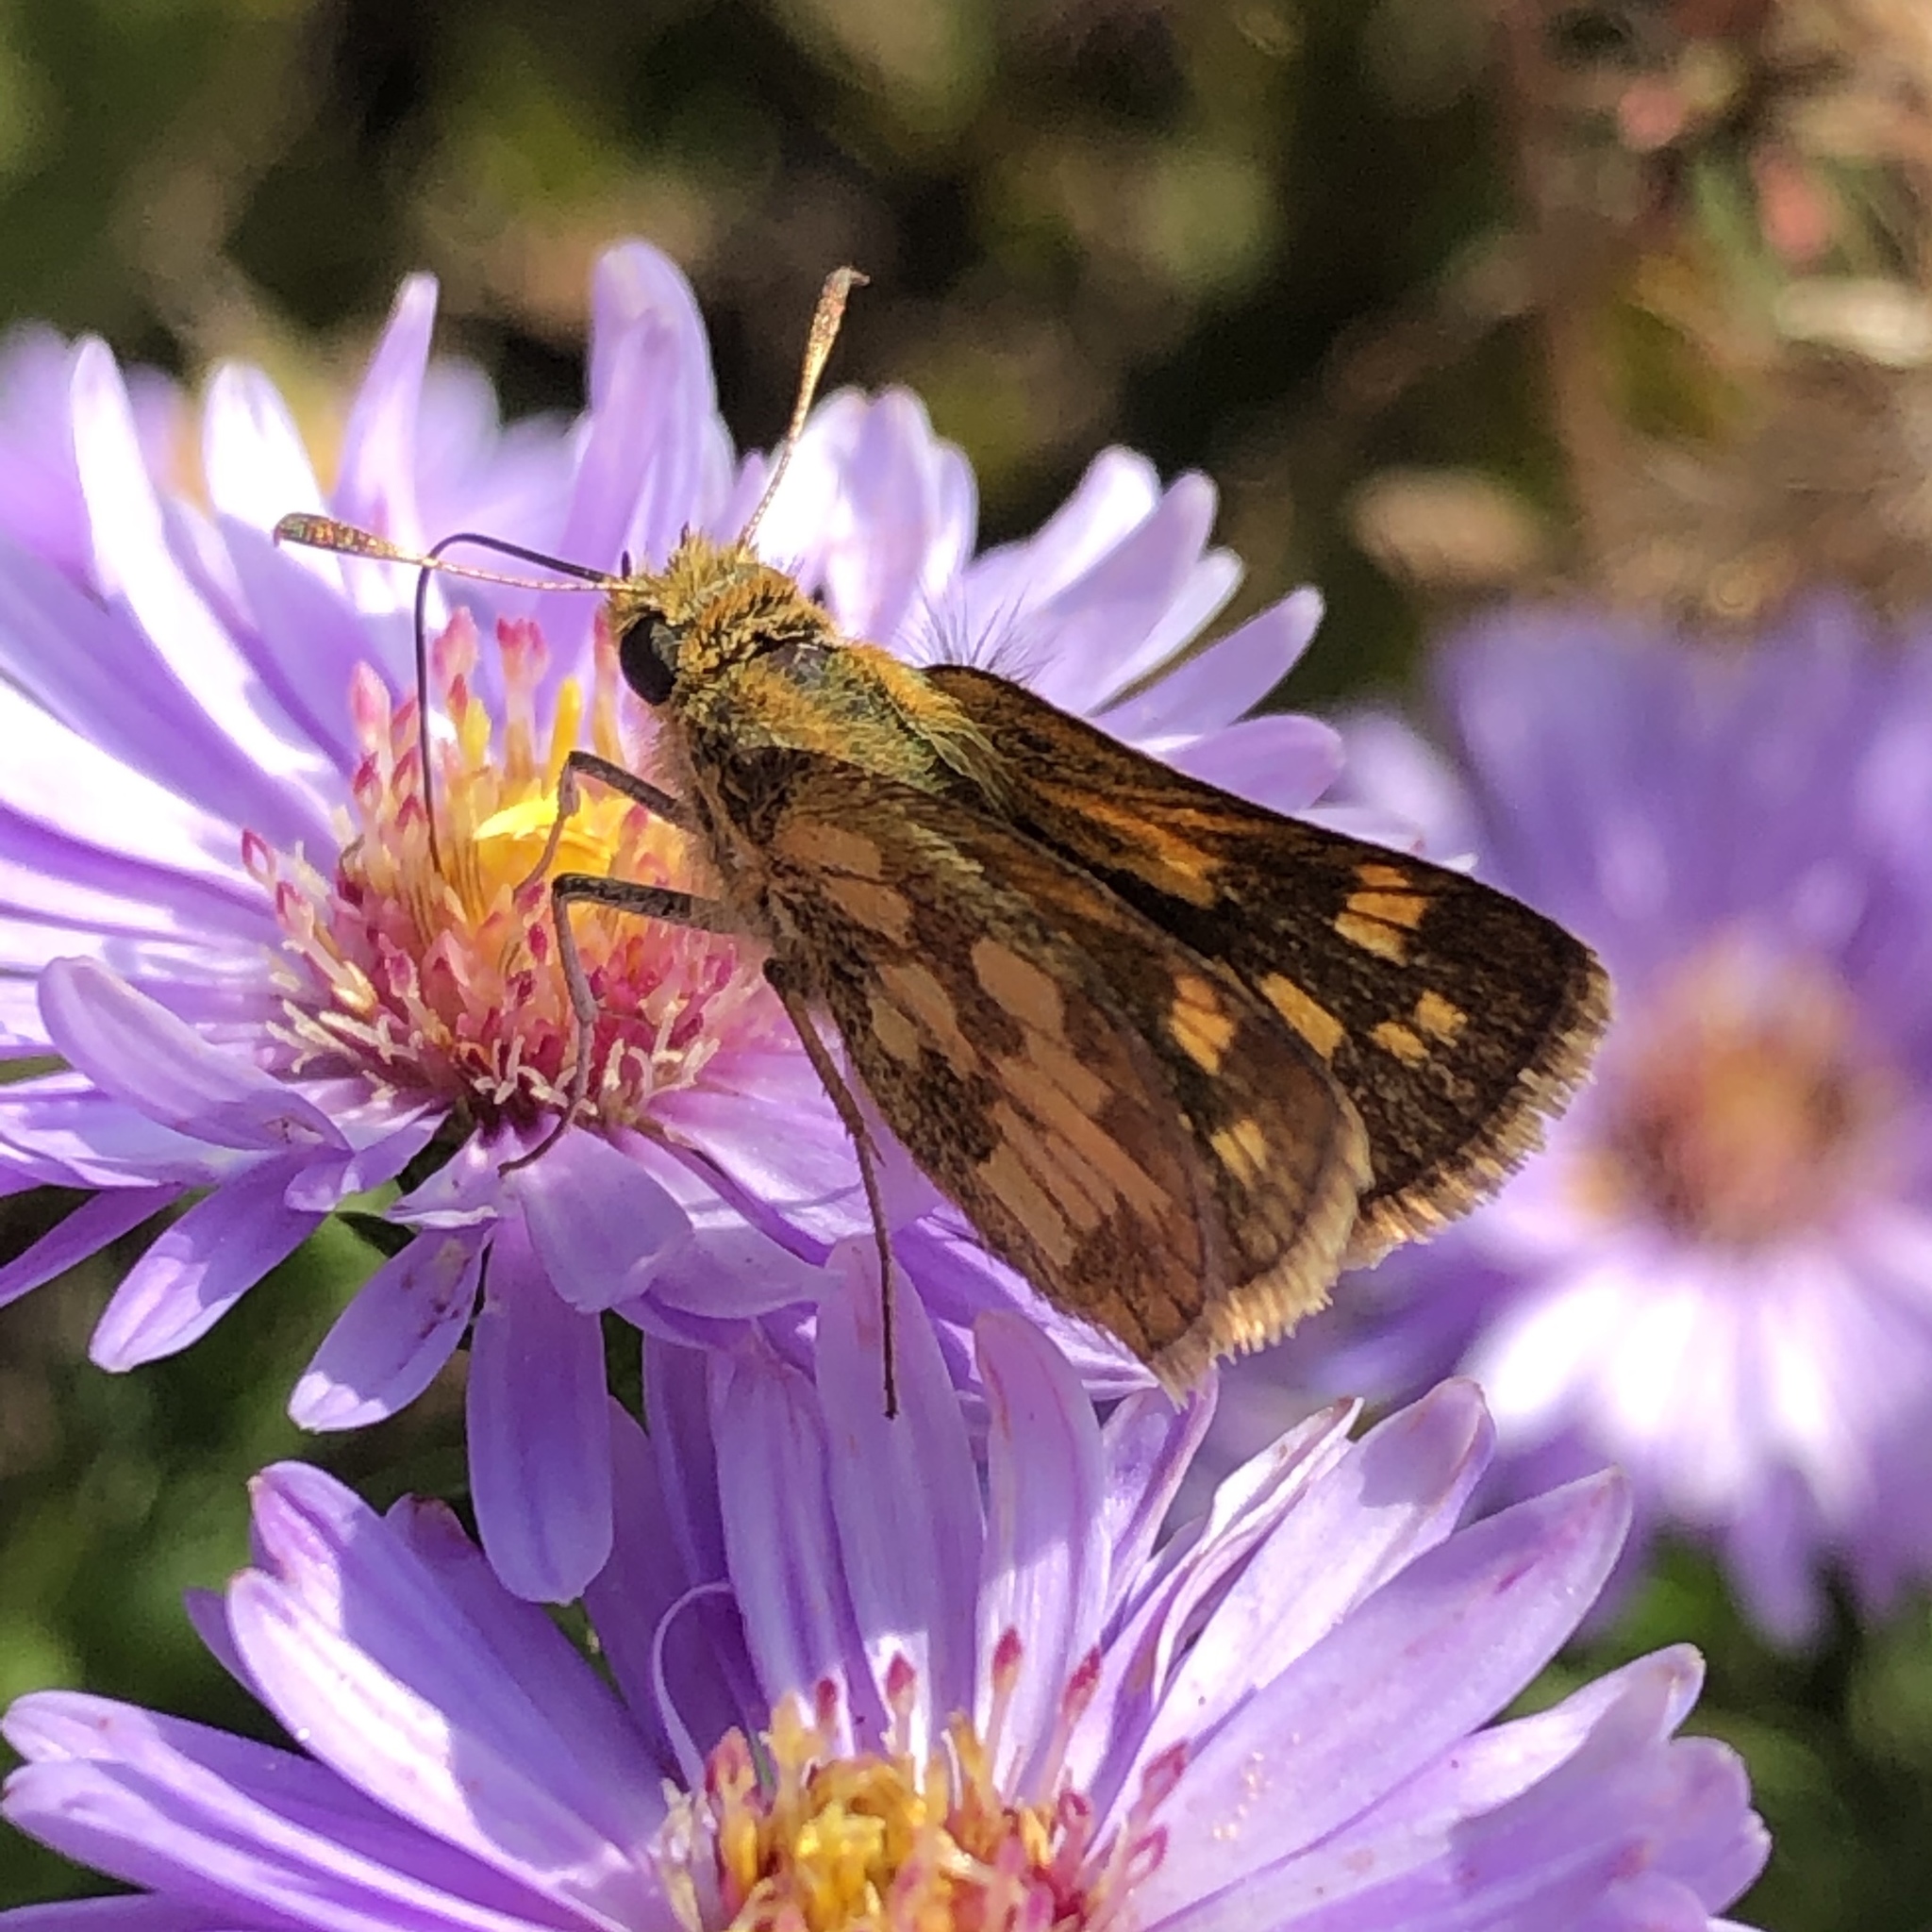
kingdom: Animalia
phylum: Arthropoda
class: Insecta
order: Lepidoptera
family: Hesperiidae
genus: Polites
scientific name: Polites coras
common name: Peck's skipper
